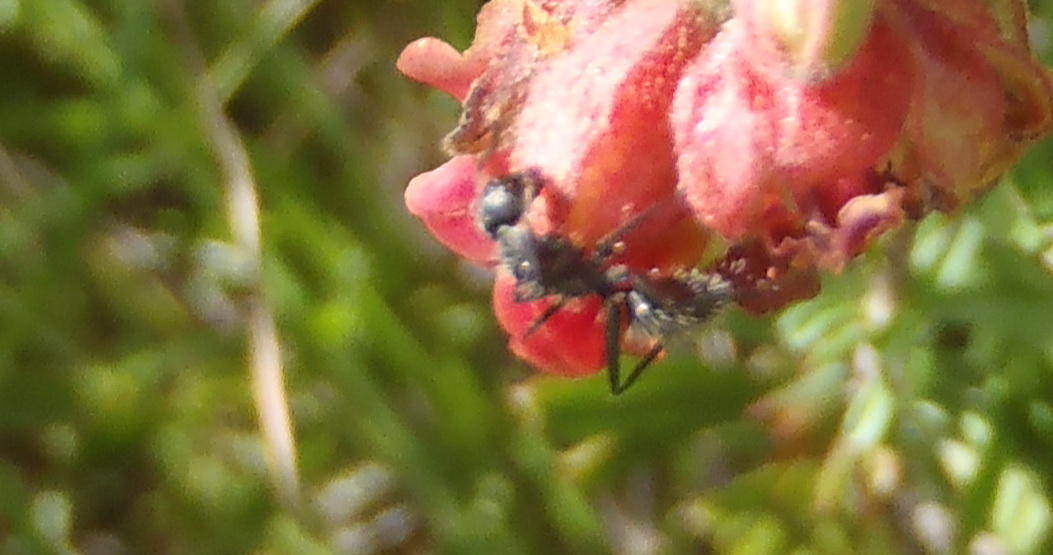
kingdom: Animalia
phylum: Arthropoda
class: Insecta
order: Hymenoptera
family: Formicidae
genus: Camponotus
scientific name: Camponotus niveosetosus
